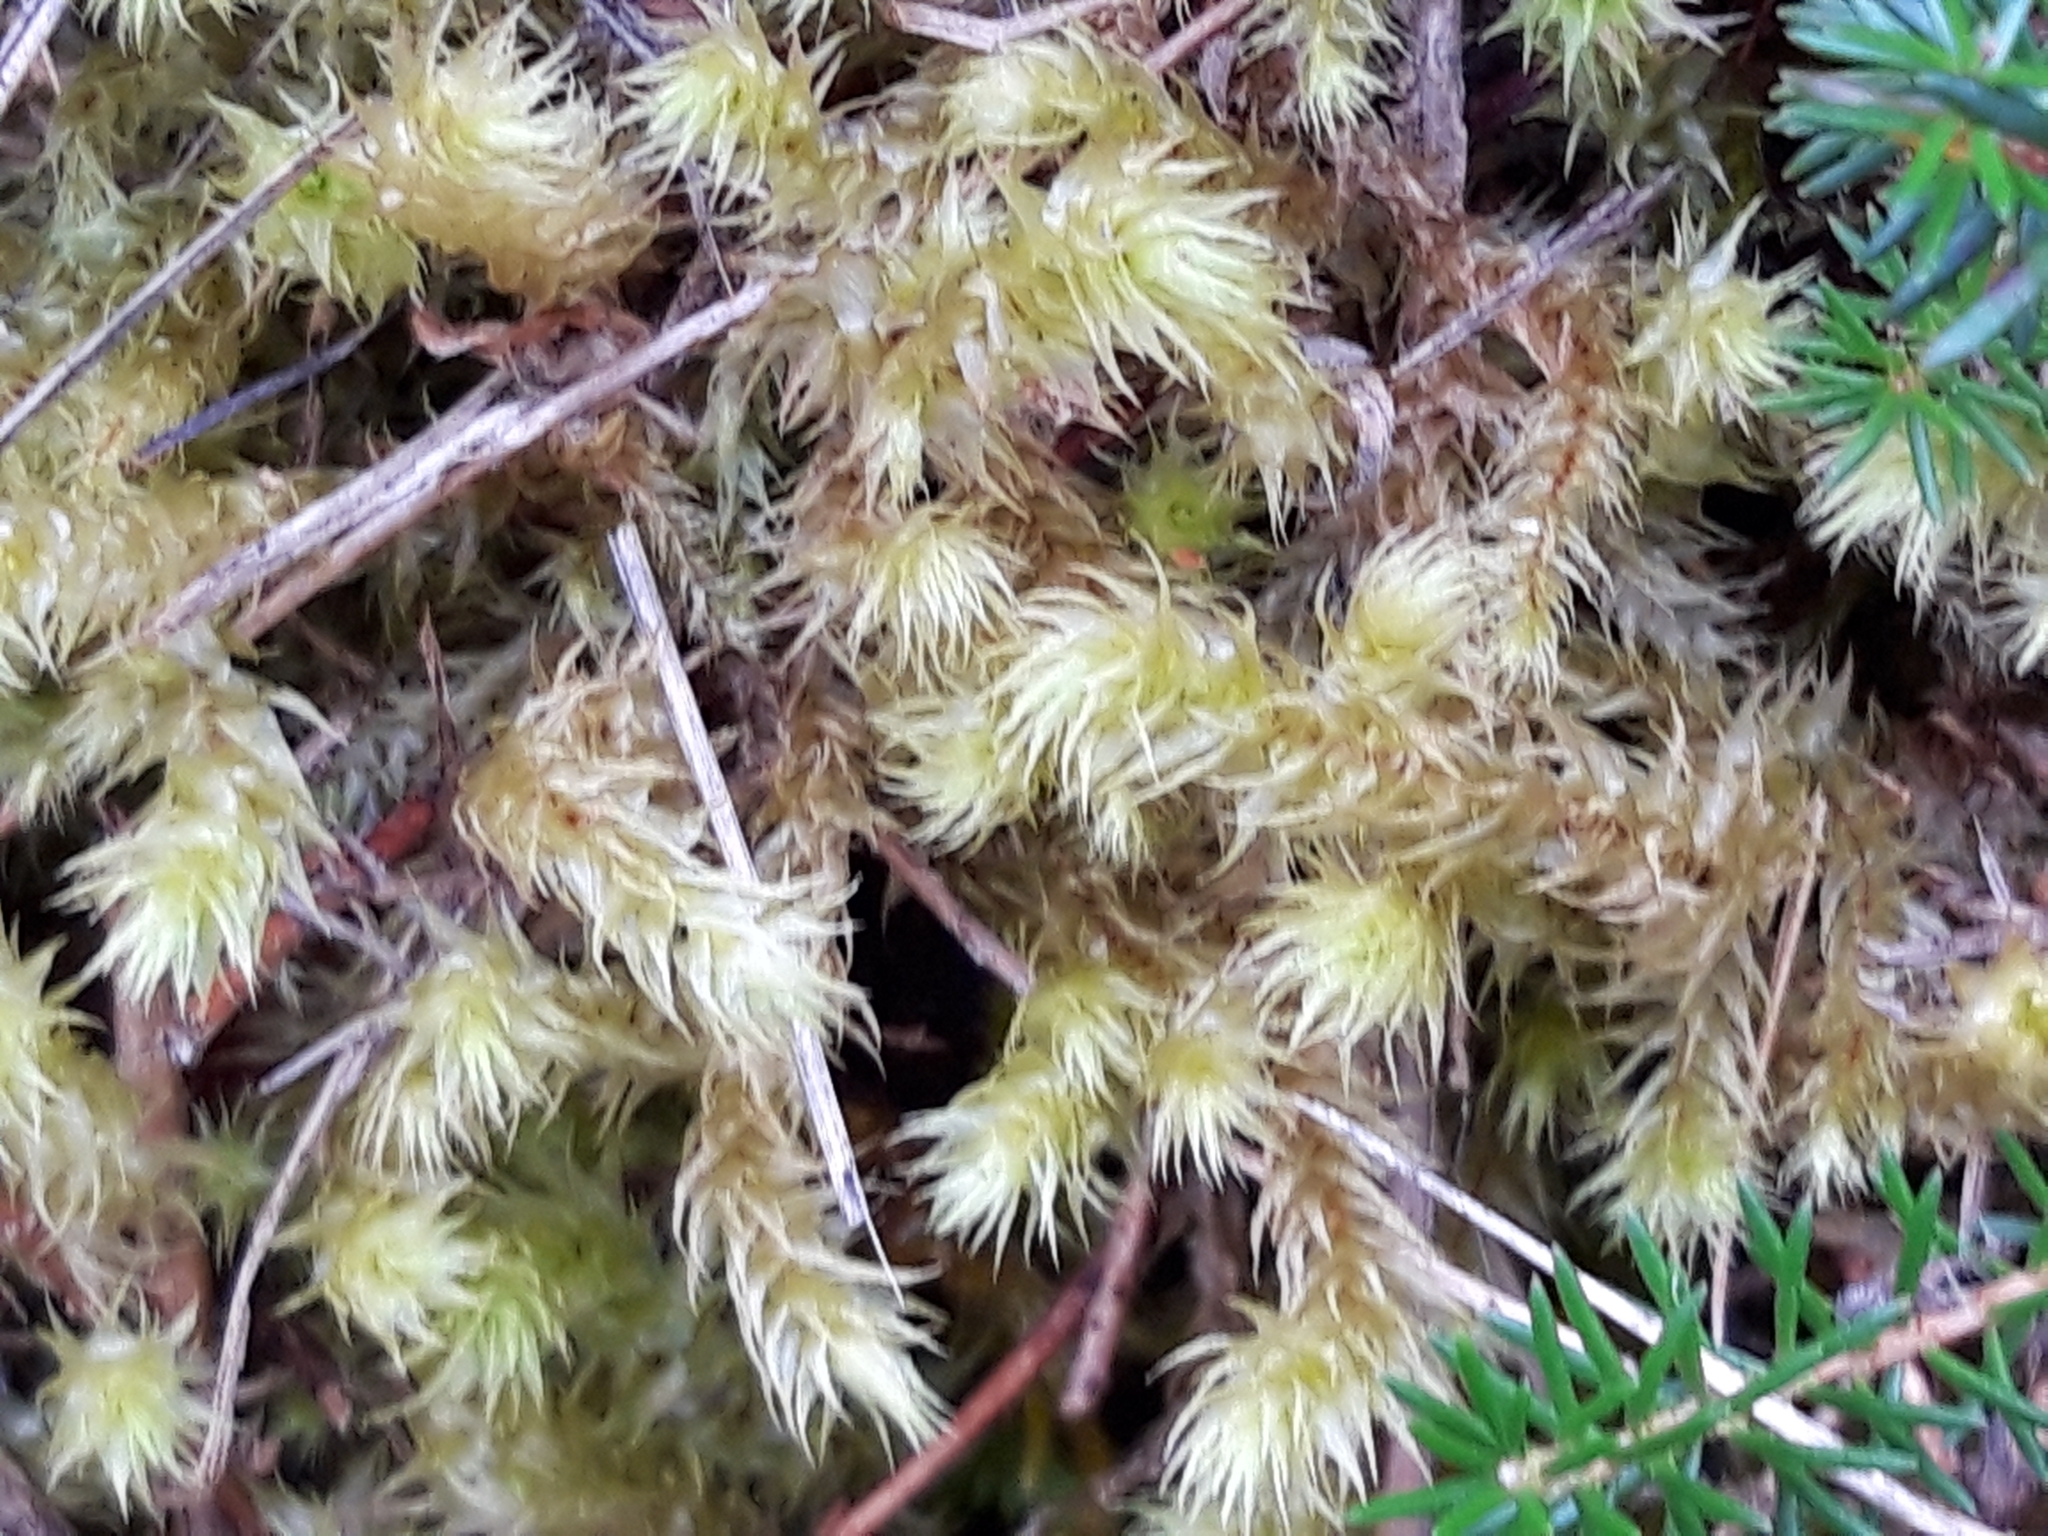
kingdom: Plantae
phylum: Bryophyta
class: Bryopsida
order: Hypnales
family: Hylocomiaceae
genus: Hylocomiadelphus
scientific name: Hylocomiadelphus triquetrus
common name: Rough goose neck moss
